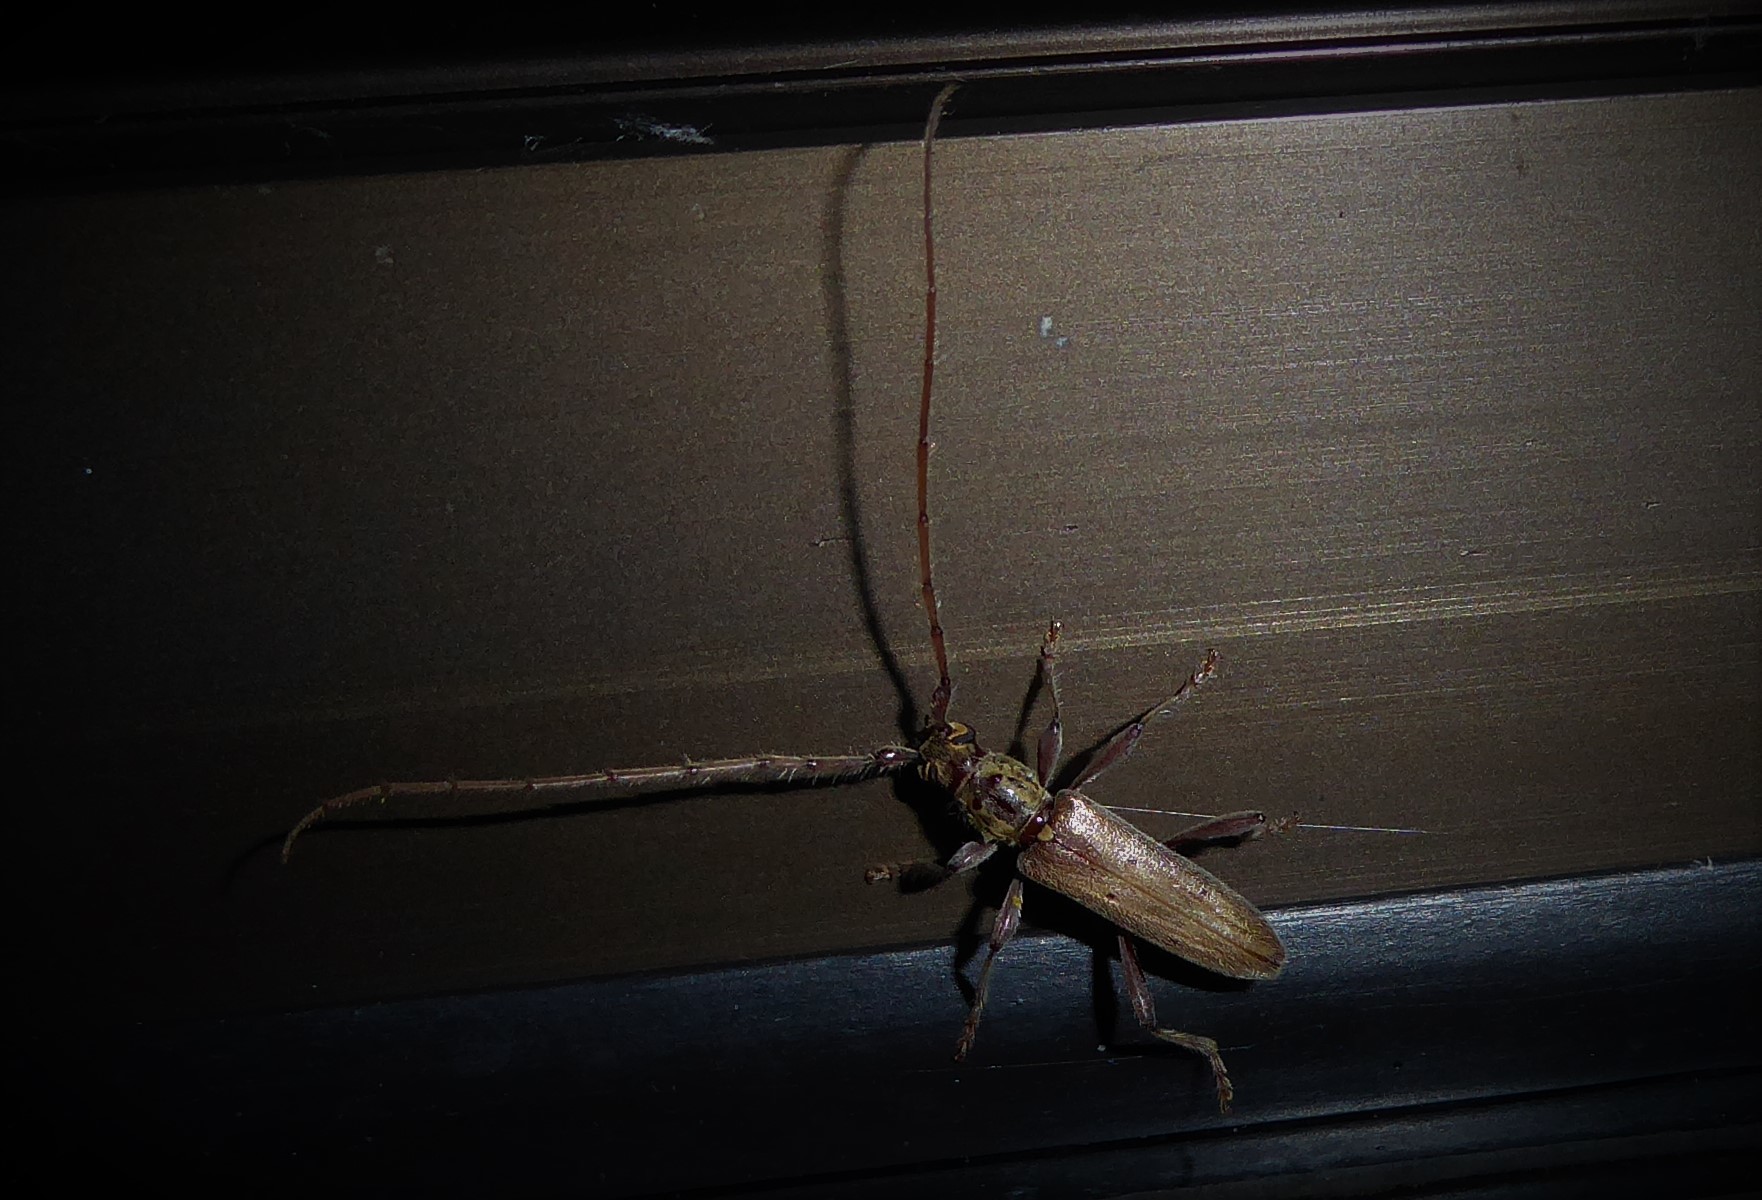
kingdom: Animalia
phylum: Arthropoda
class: Insecta
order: Coleoptera
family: Cerambycidae
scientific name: Cerambycidae
